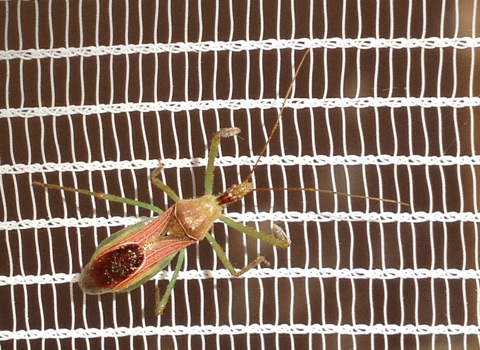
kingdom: Animalia
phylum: Arthropoda
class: Insecta
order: Hemiptera
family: Reduviidae
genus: Zelus
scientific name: Zelus renardii
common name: Assassin bug
